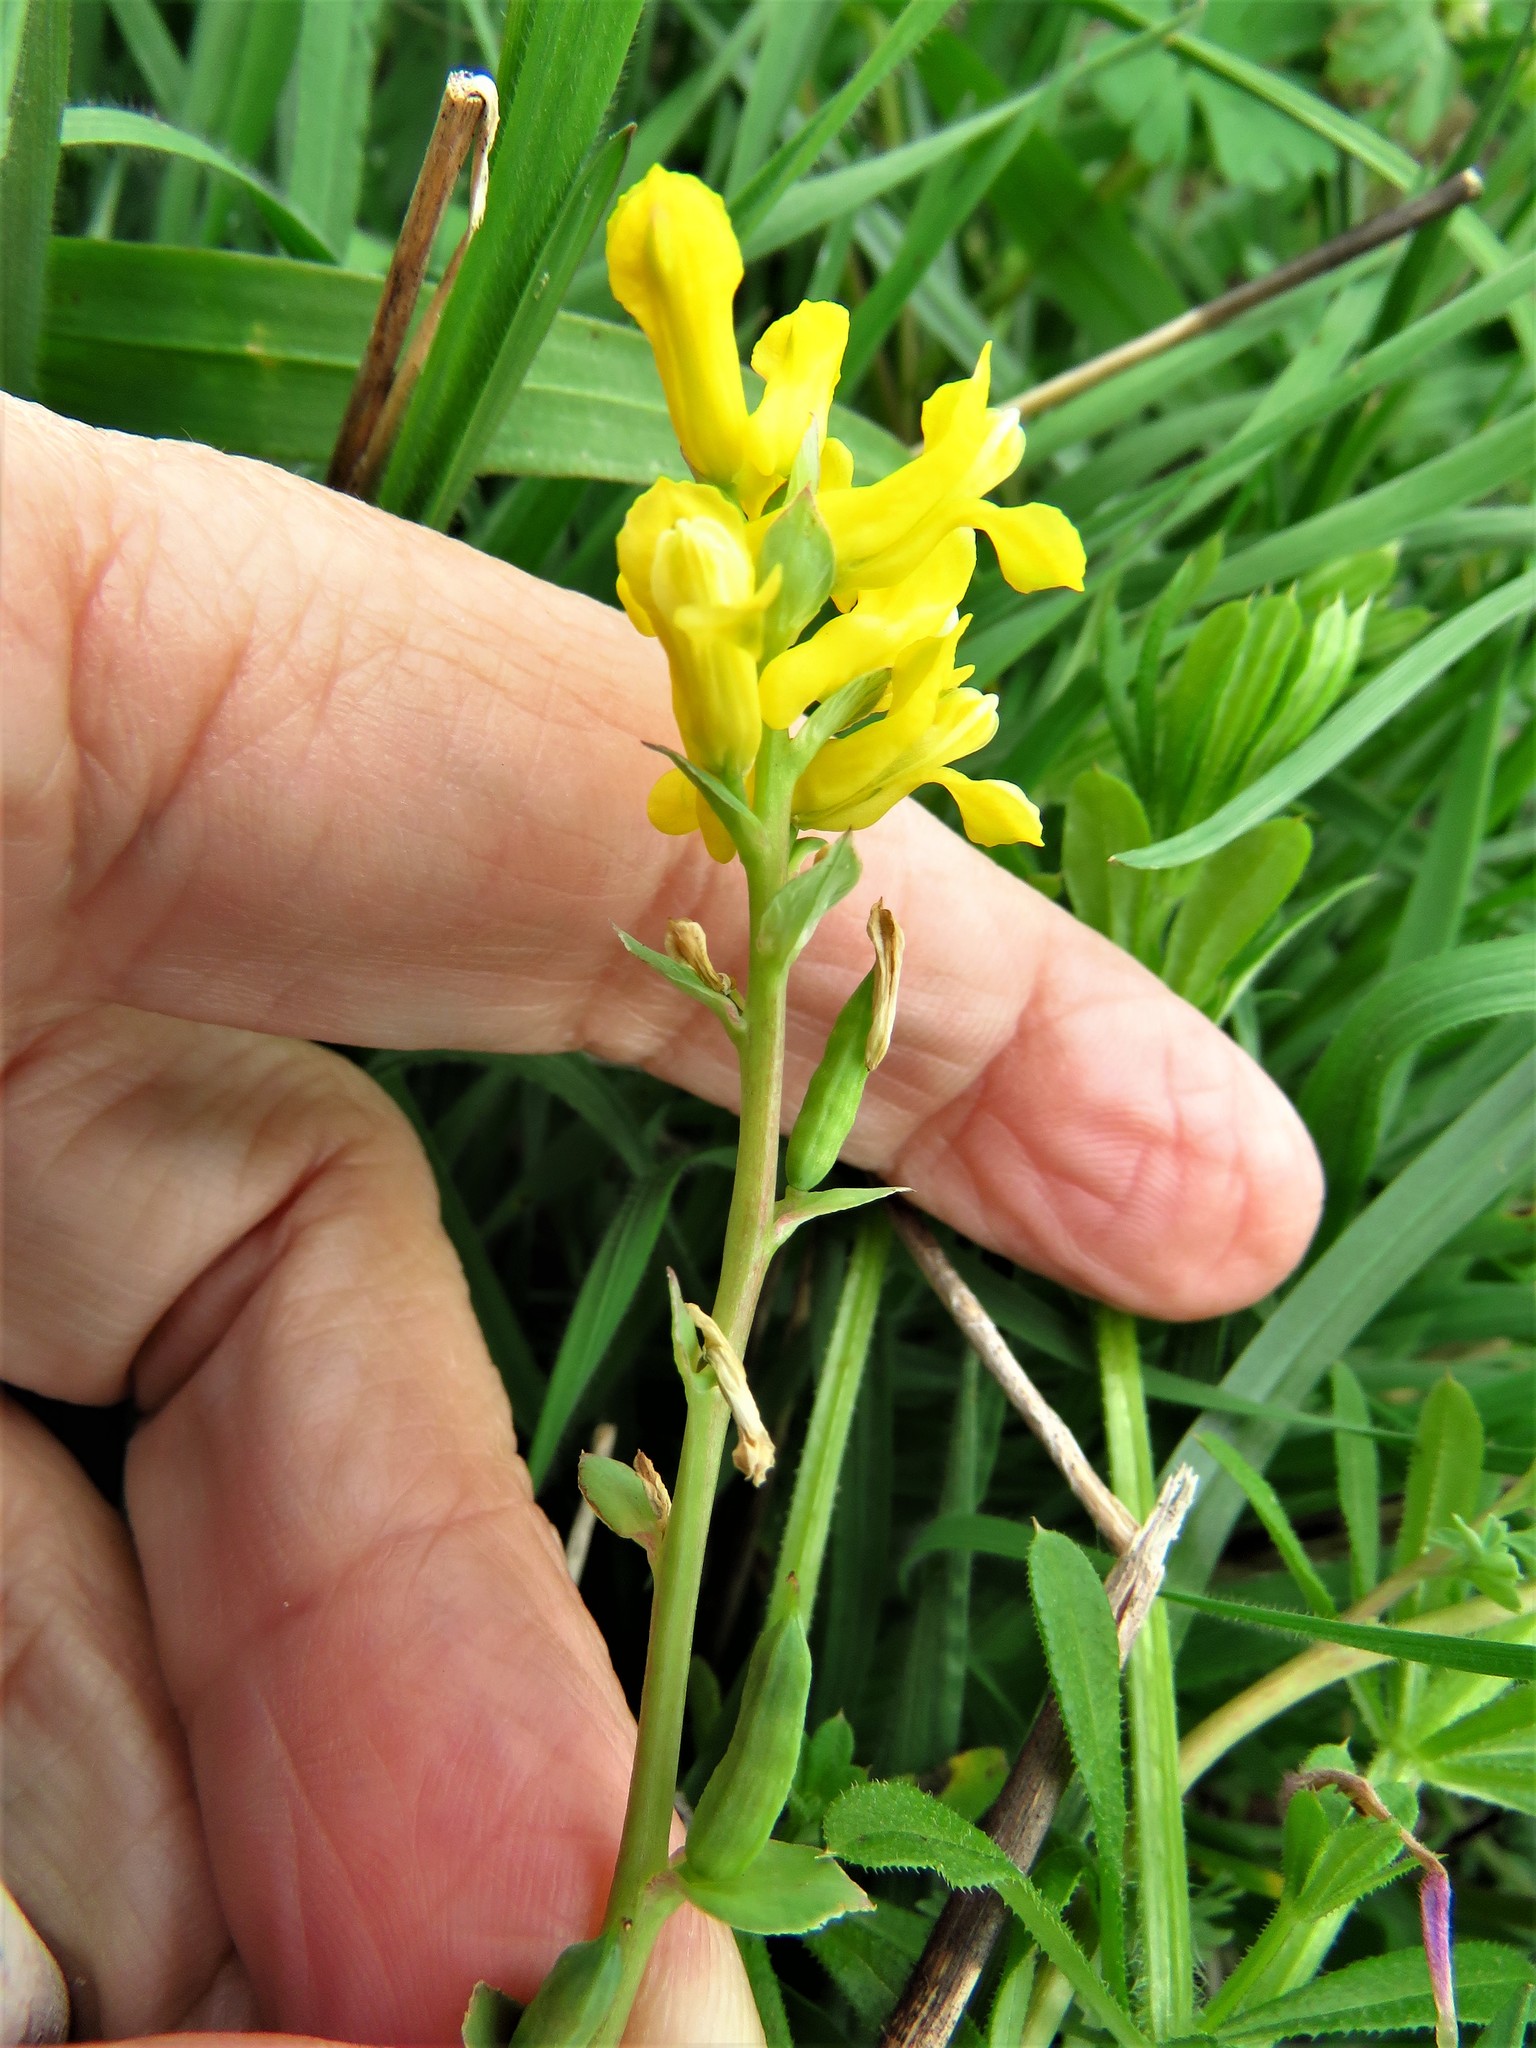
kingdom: Plantae
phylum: Tracheophyta
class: Magnoliopsida
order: Ranunculales
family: Papaveraceae
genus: Corydalis
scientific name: Corydalis aurea
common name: Golden corydalis
